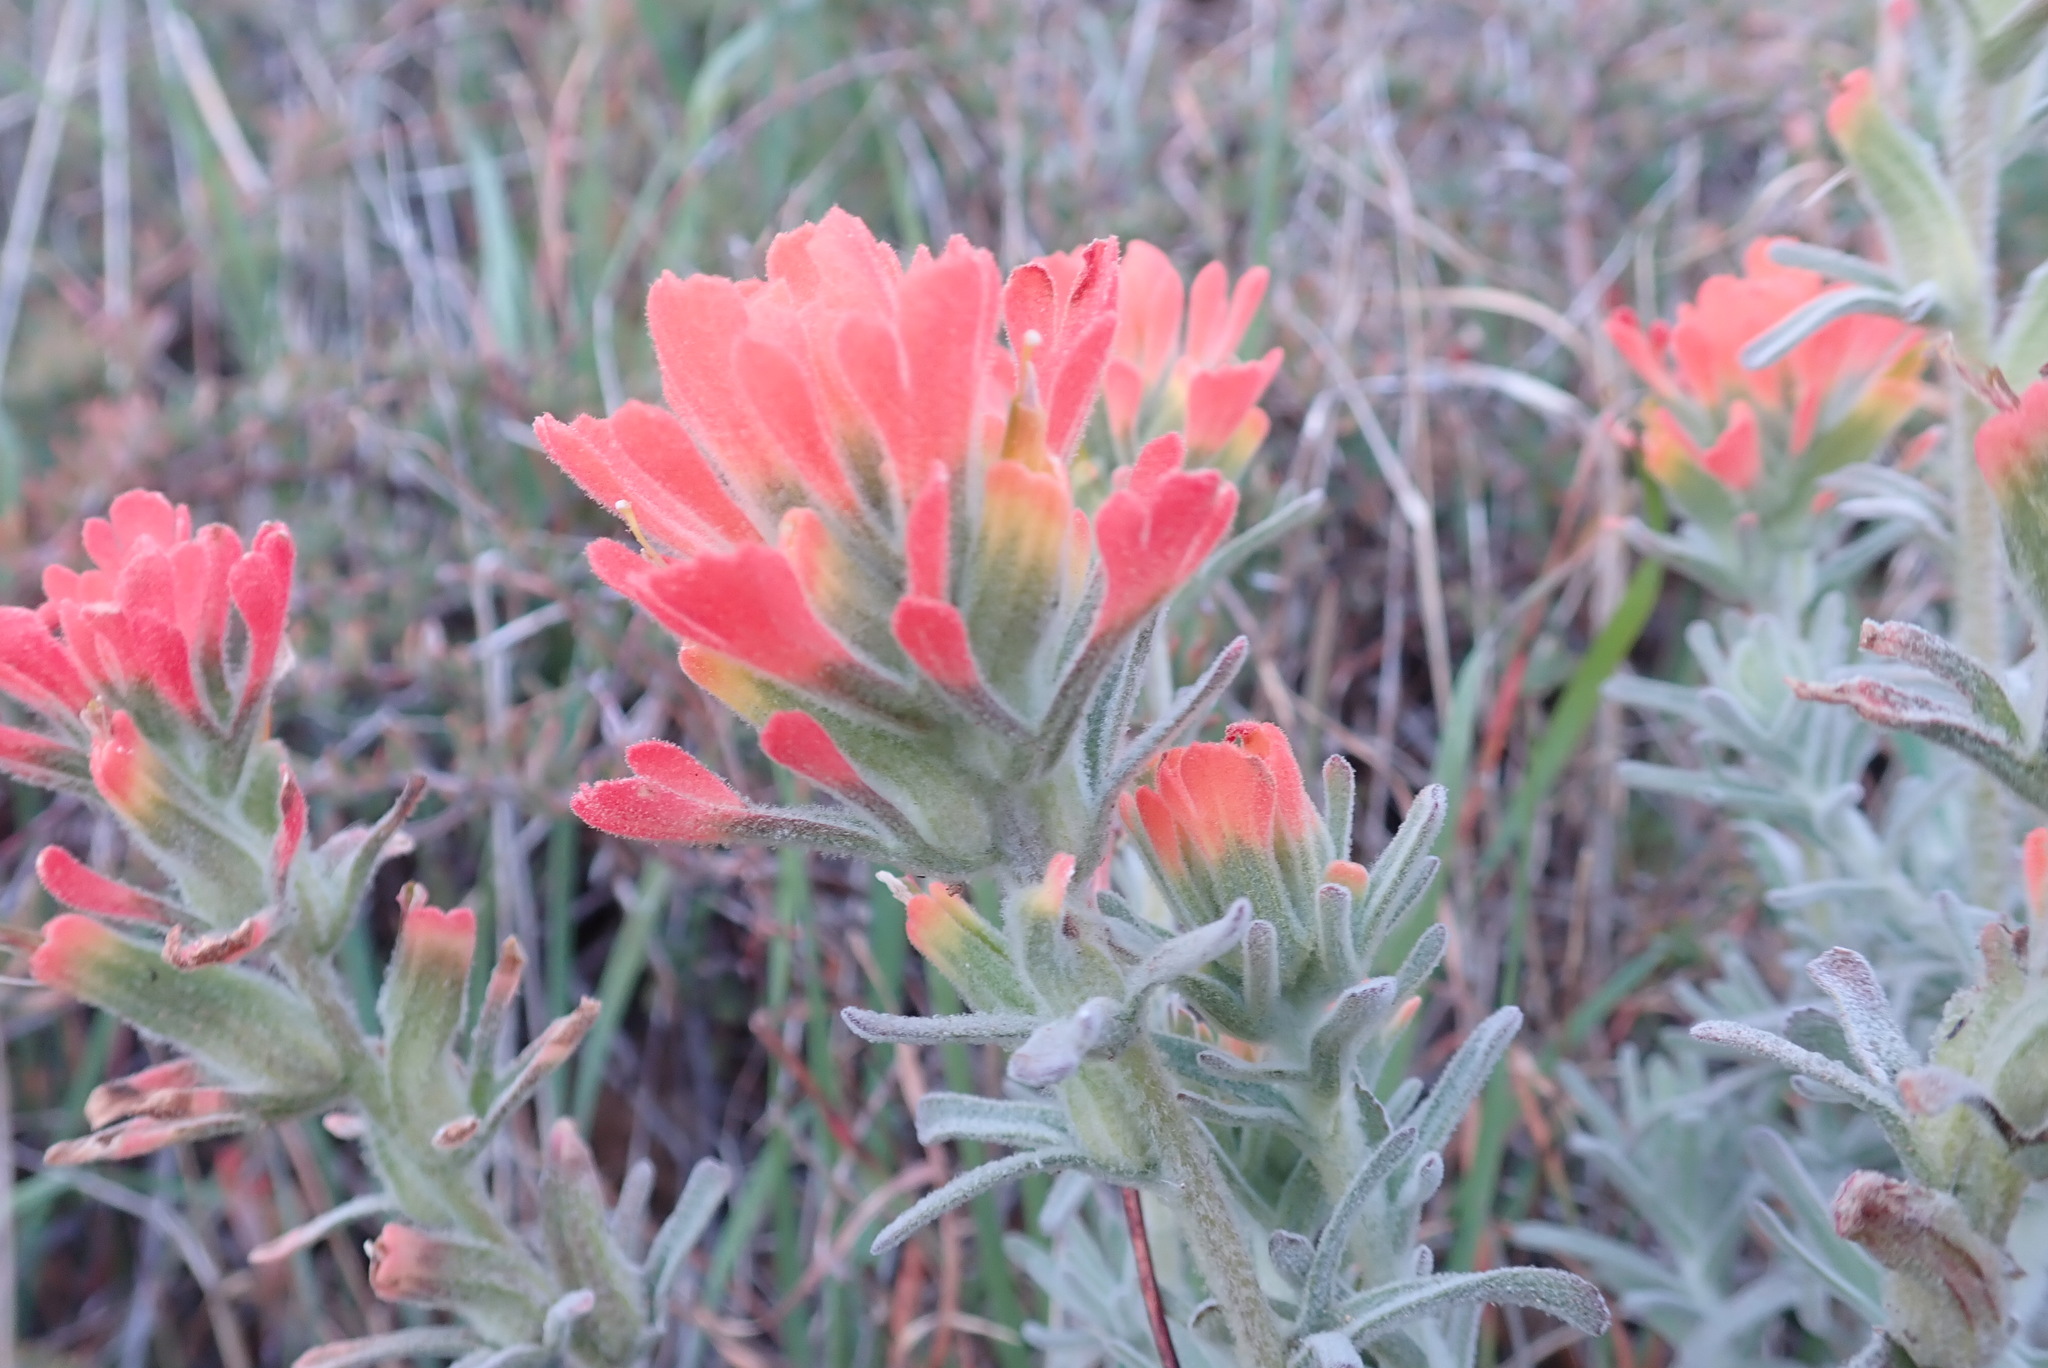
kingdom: Plantae
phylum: Tracheophyta
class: Magnoliopsida
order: Lamiales
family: Orobanchaceae
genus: Castilleja
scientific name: Castilleja foliolosa
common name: Woolly indian paintbrush
